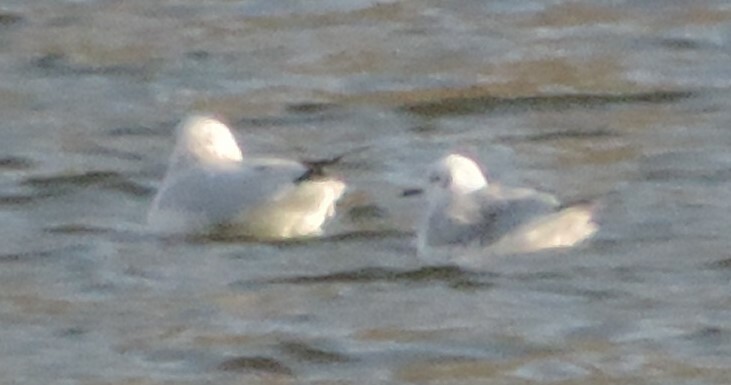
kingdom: Animalia
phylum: Chordata
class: Aves
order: Charadriiformes
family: Laridae
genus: Chroicocephalus
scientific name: Chroicocephalus philadelphia
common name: Bonaparte's gull
